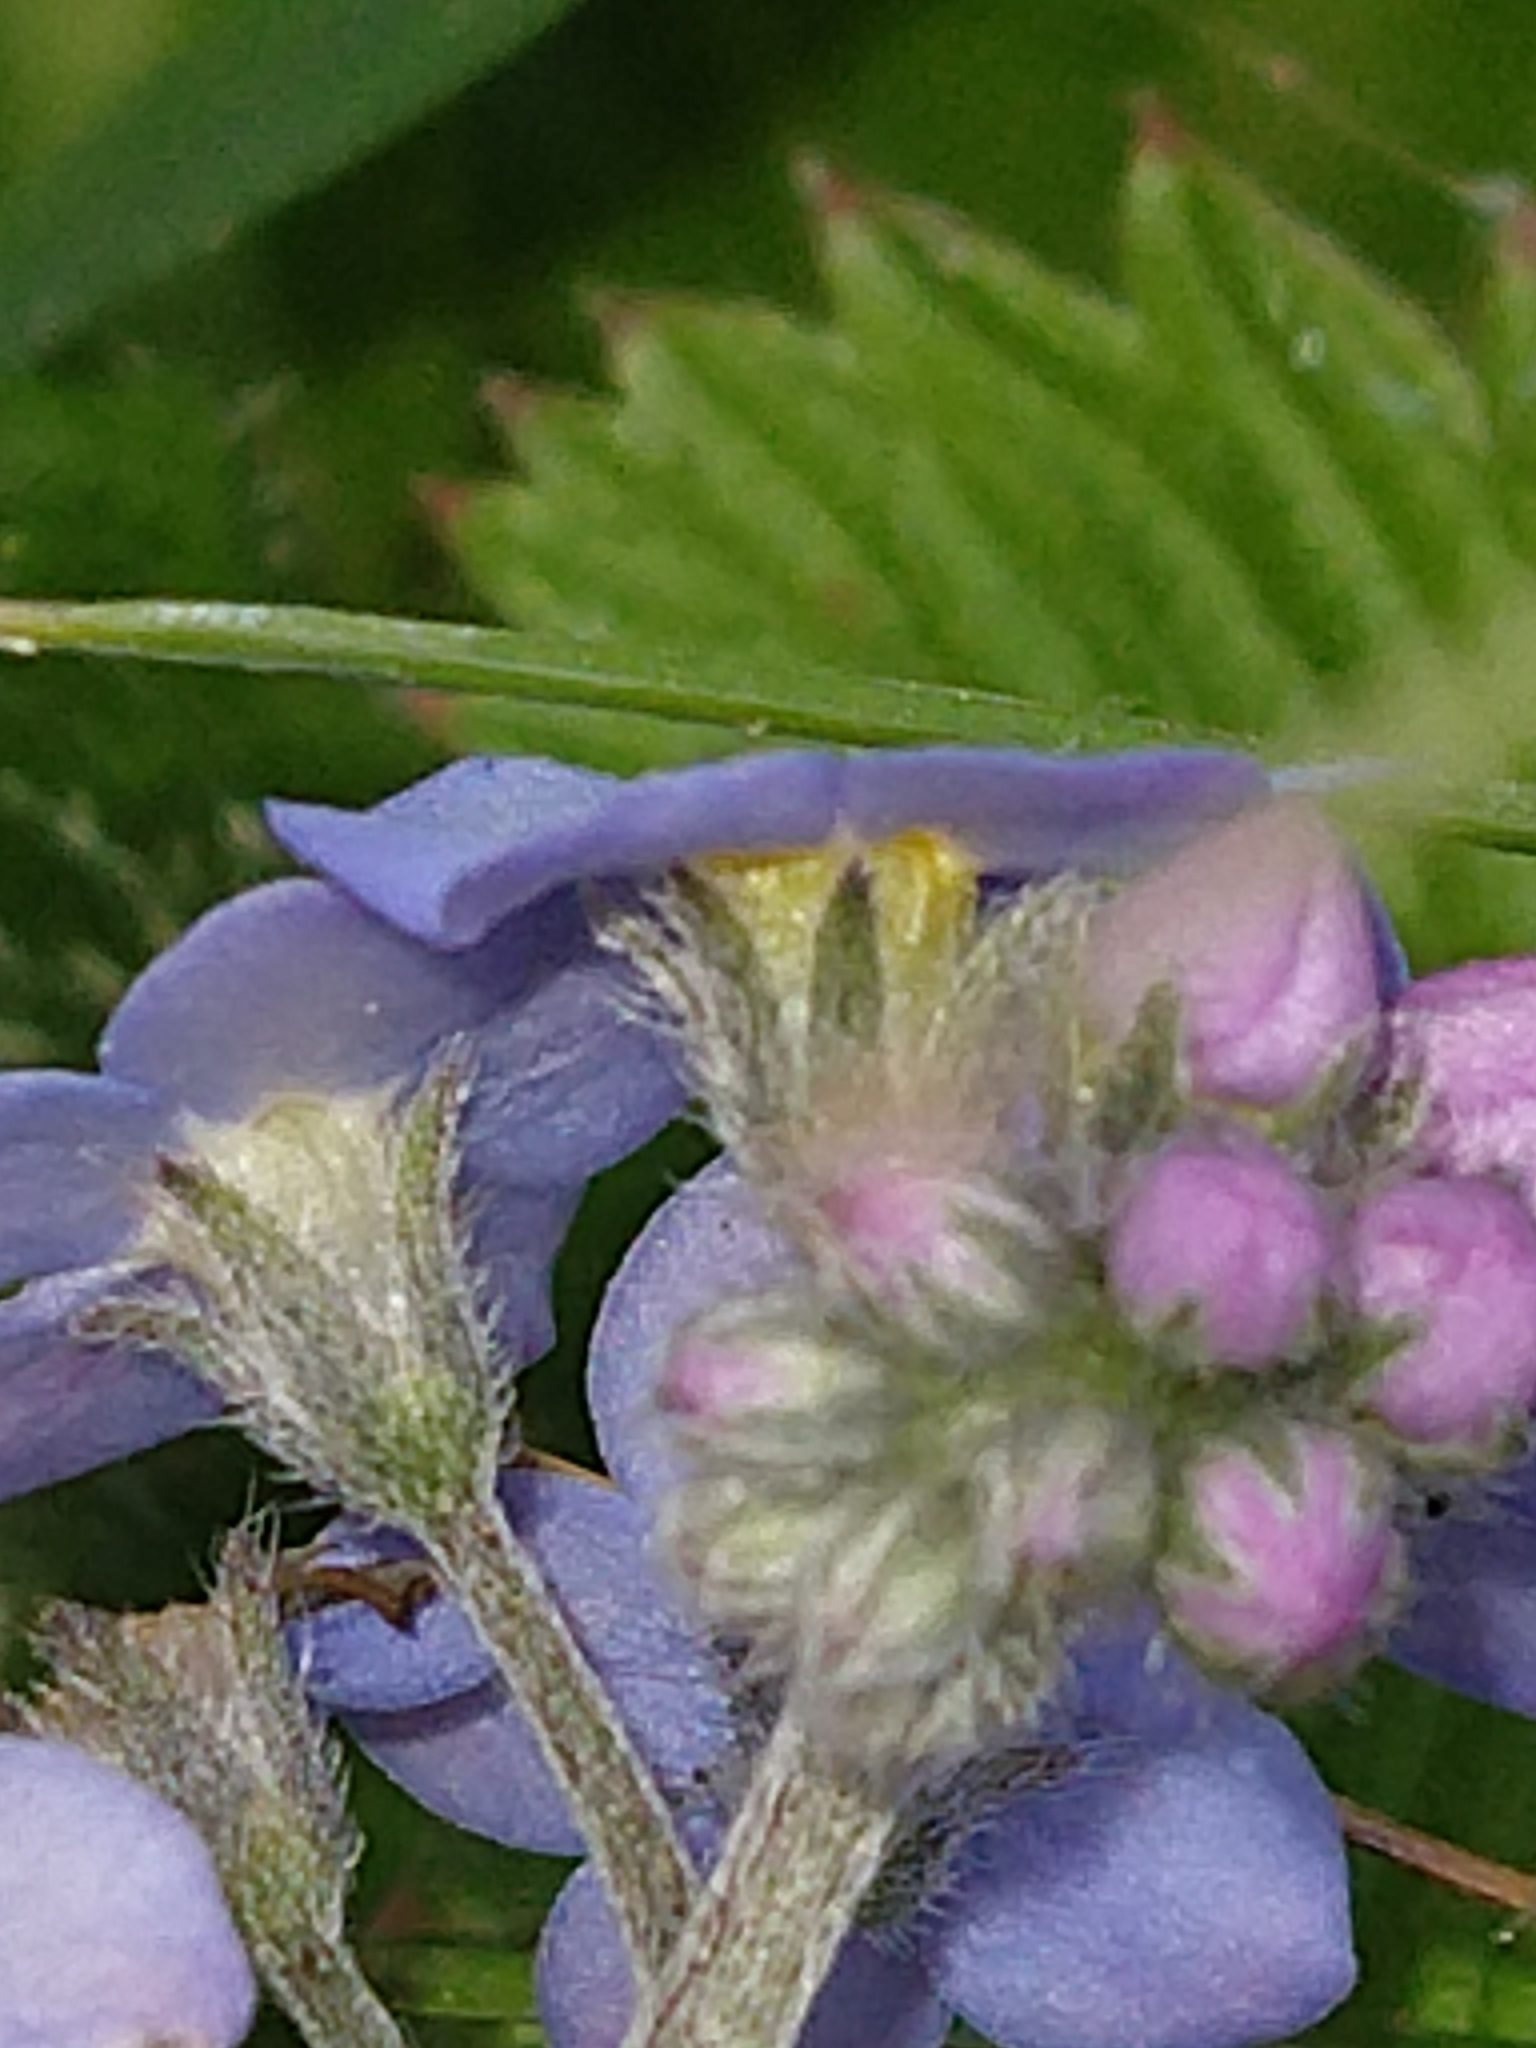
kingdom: Plantae
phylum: Tracheophyta
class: Magnoliopsida
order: Boraginales
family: Boraginaceae
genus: Myosotis
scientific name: Myosotis sylvatica
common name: Wood forget-me-not
